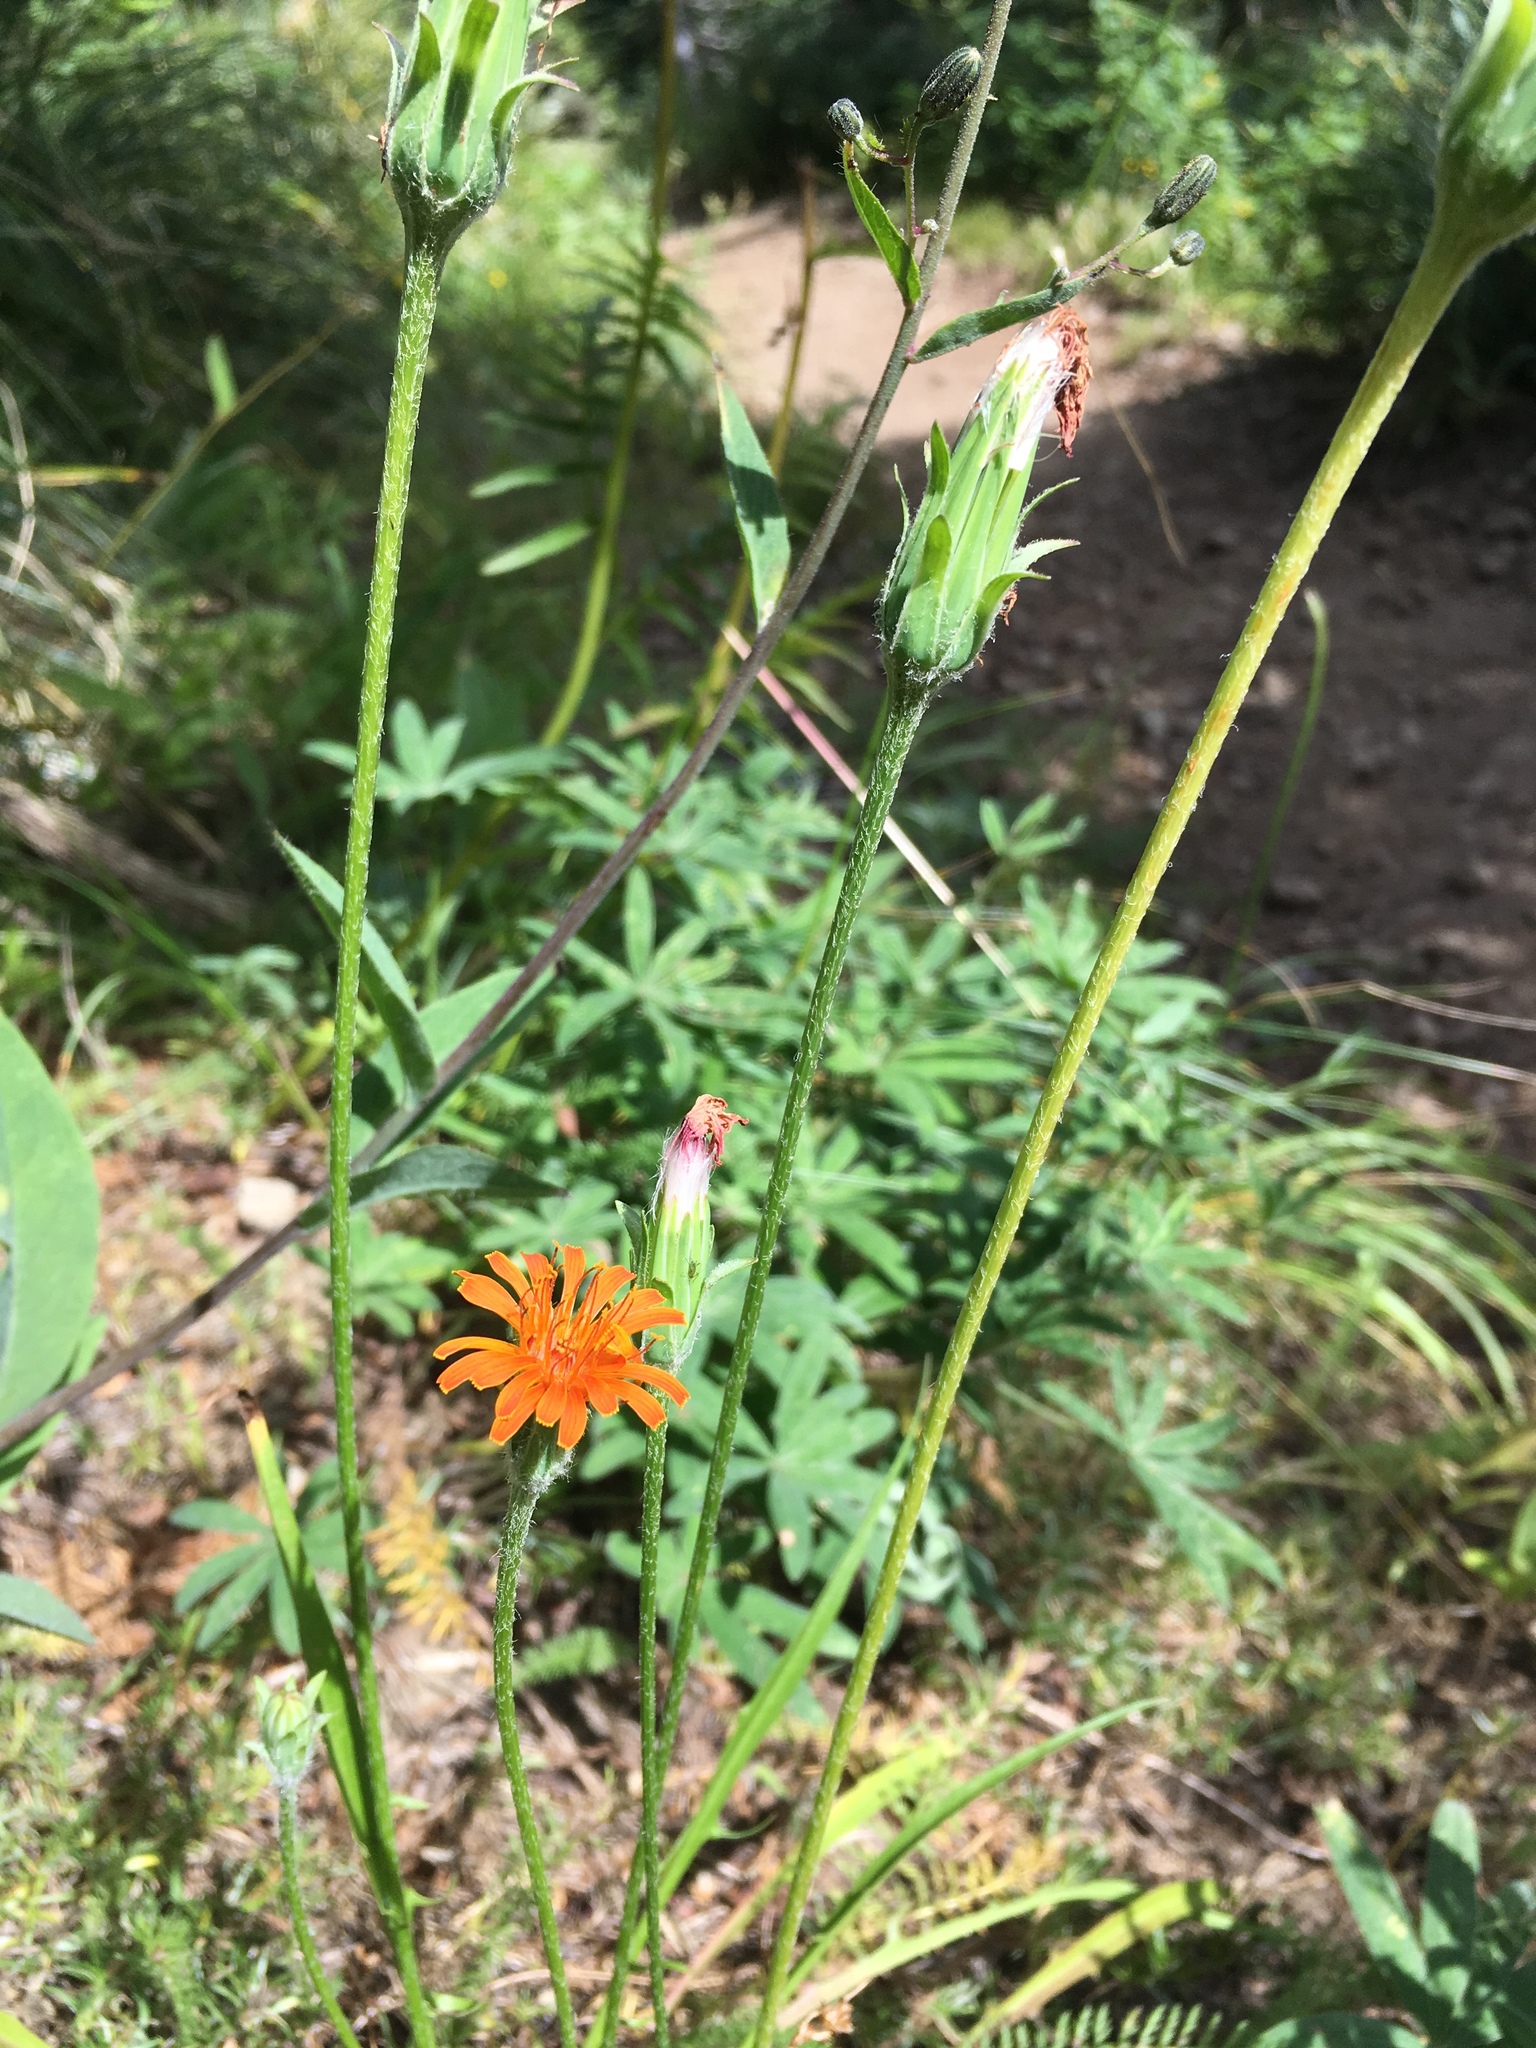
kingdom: Plantae
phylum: Tracheophyta
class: Magnoliopsida
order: Asterales
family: Asteraceae
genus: Agoseris
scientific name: Agoseris aurantiaca
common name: Mountain agoseris
